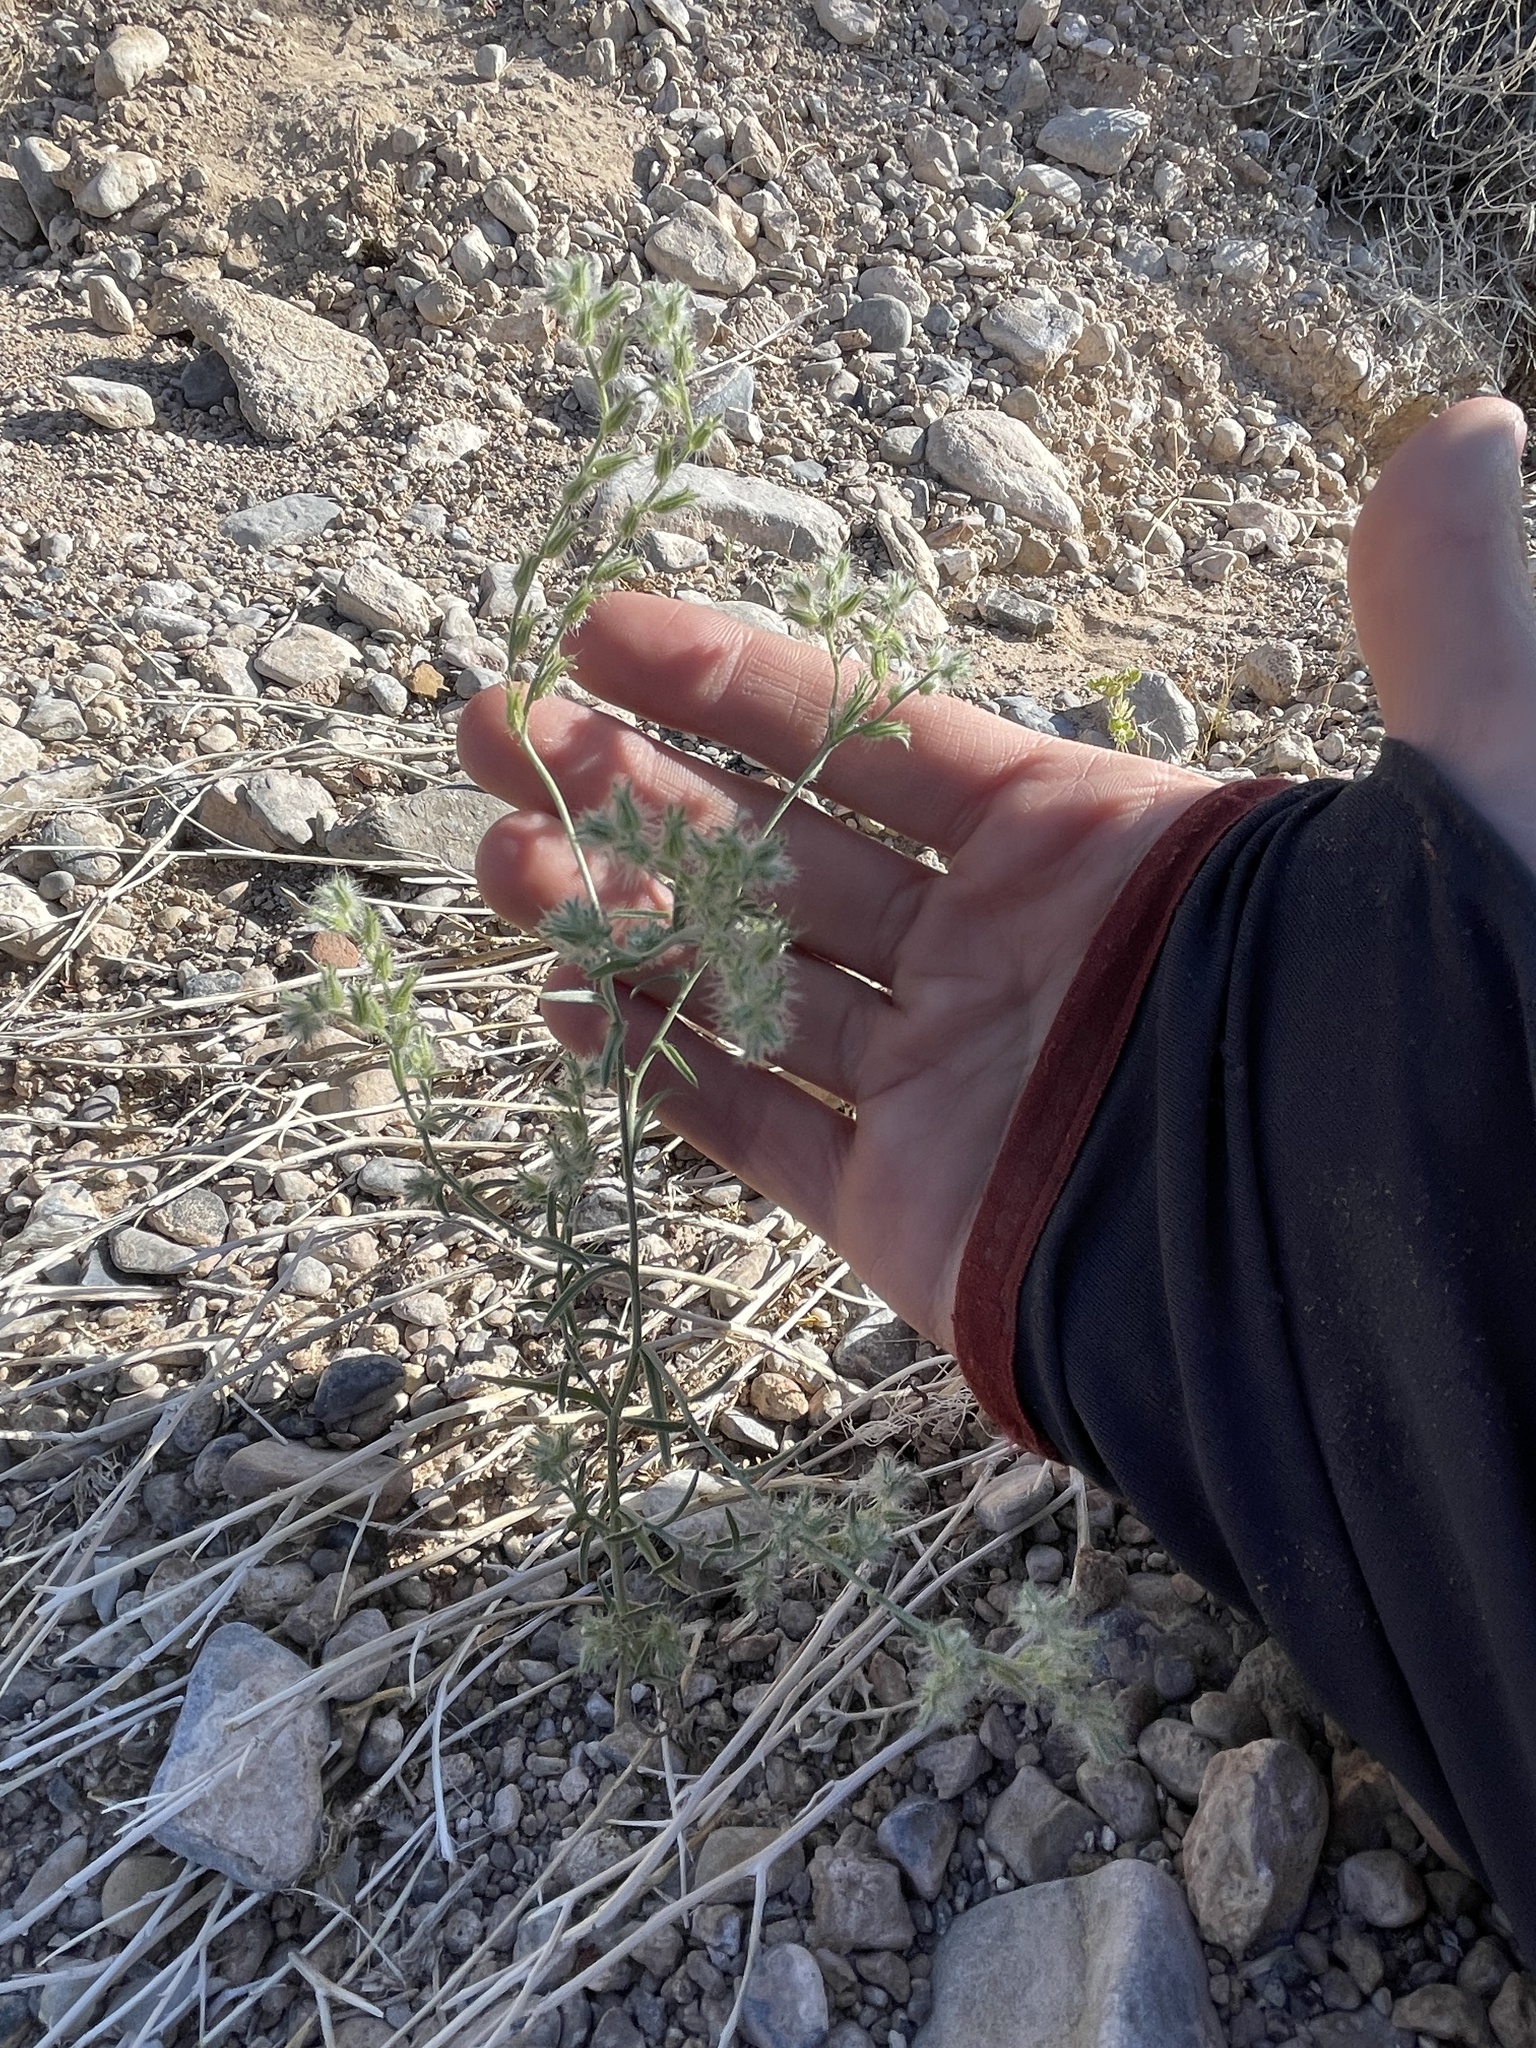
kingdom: Plantae
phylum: Tracheophyta
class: Magnoliopsida
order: Boraginales
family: Boraginaceae
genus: Cryptantha
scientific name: Cryptantha nevadensis
